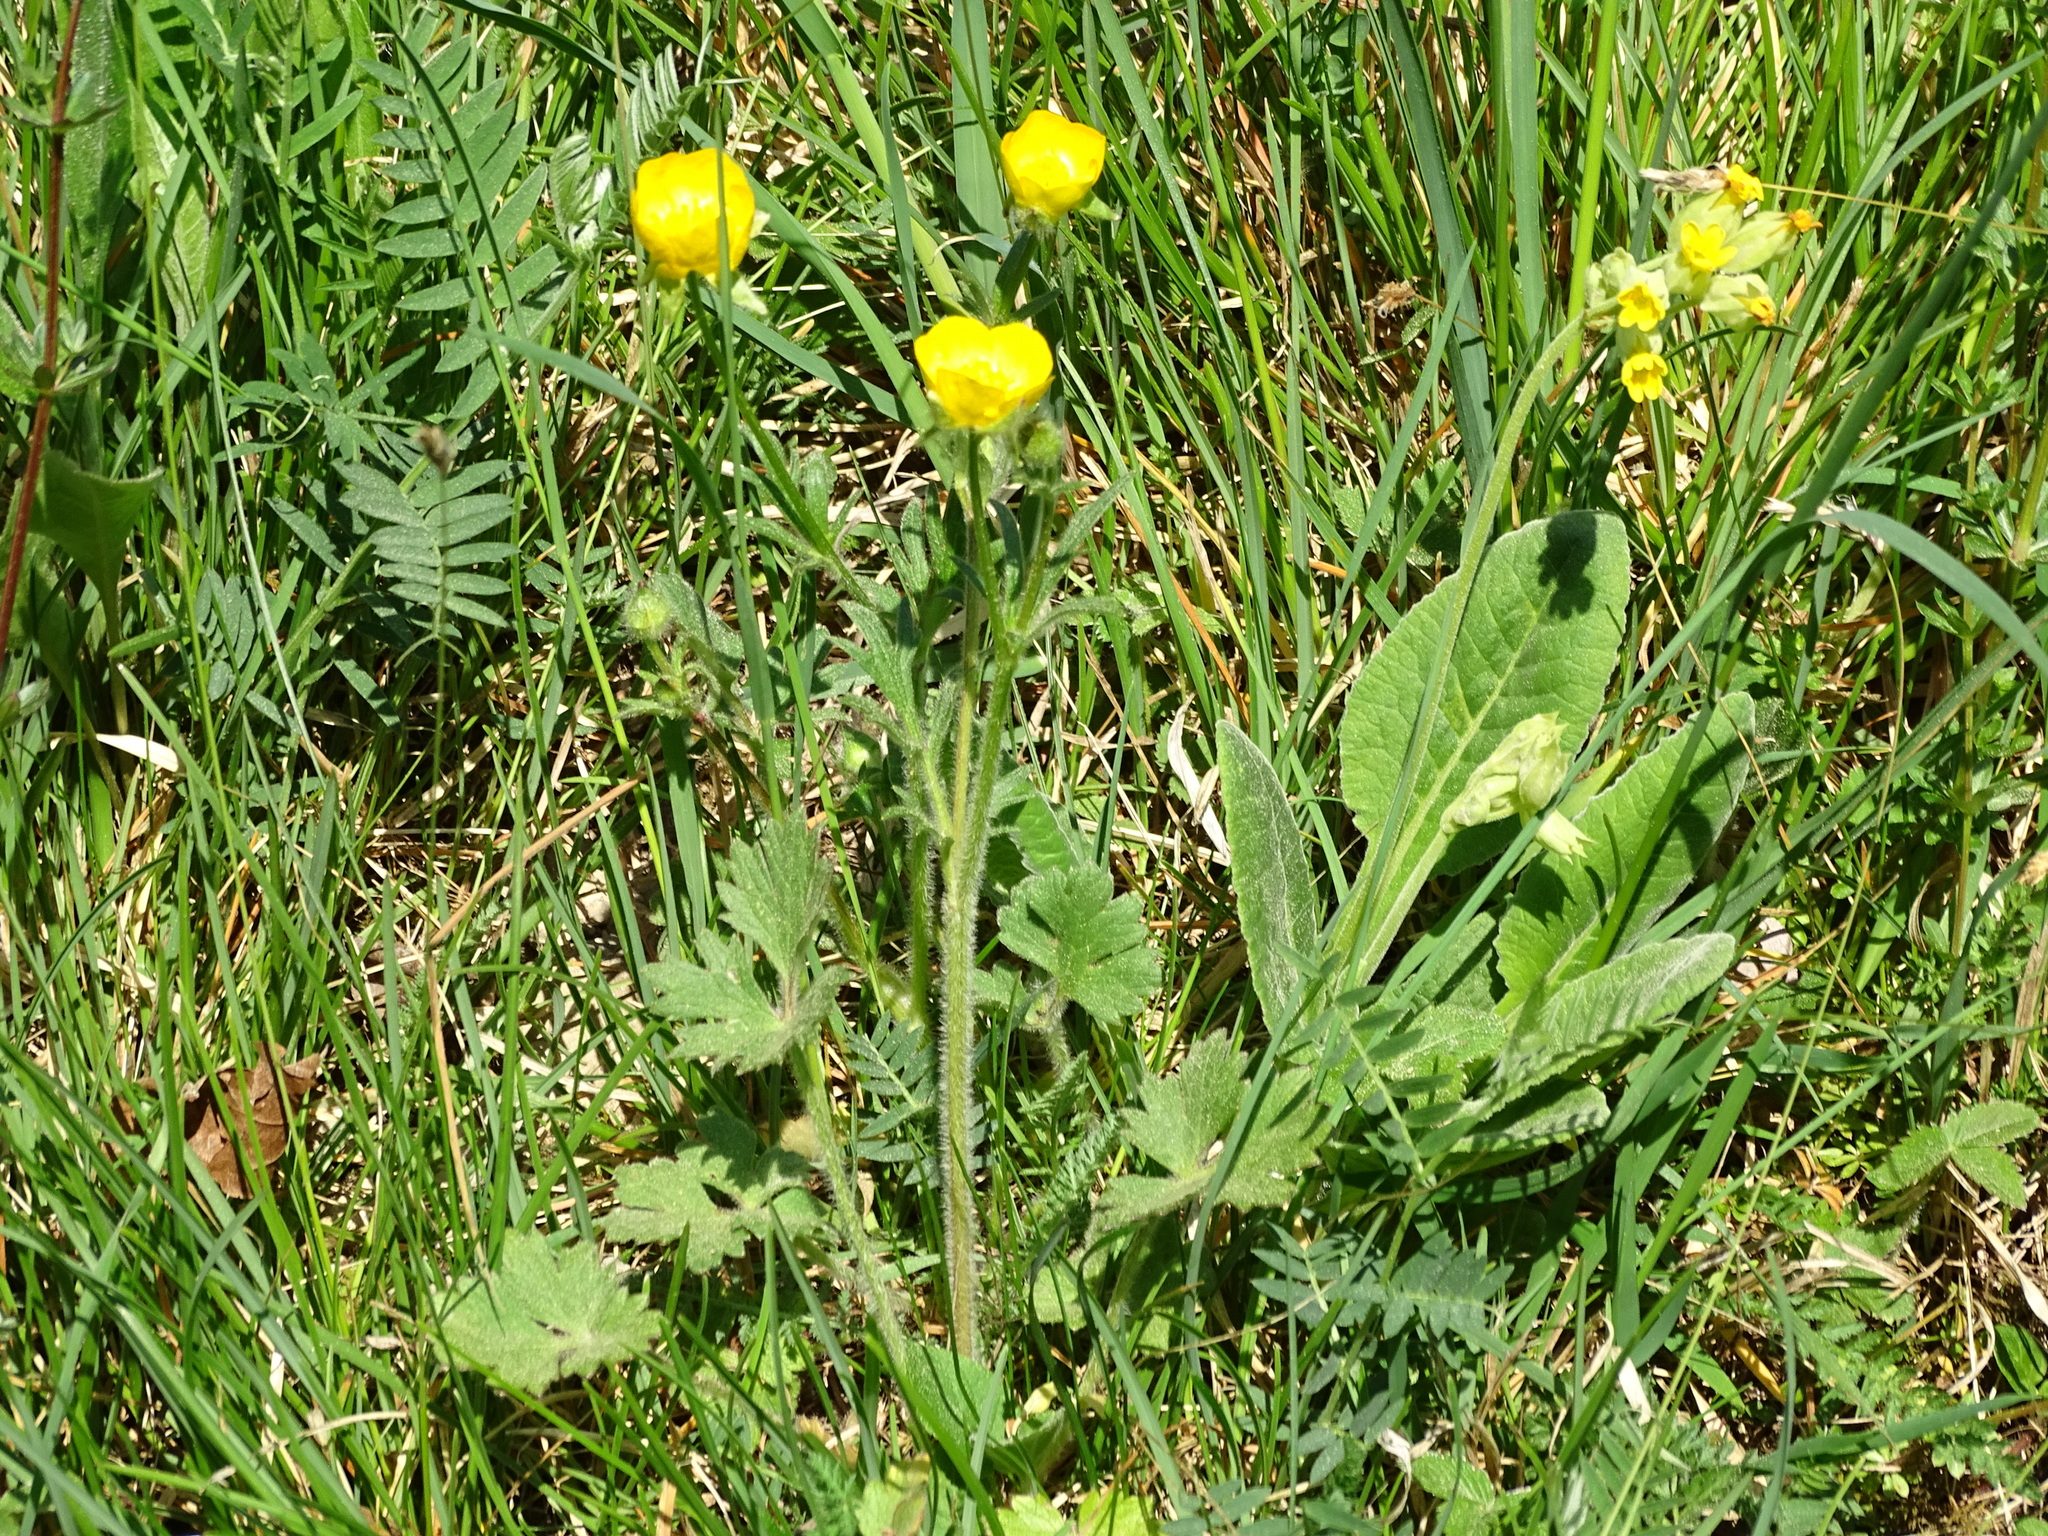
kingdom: Plantae
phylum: Tracheophyta
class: Magnoliopsida
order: Ranunculales
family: Ranunculaceae
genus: Ranunculus
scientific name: Ranunculus bulbosus
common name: Bulbous buttercup
